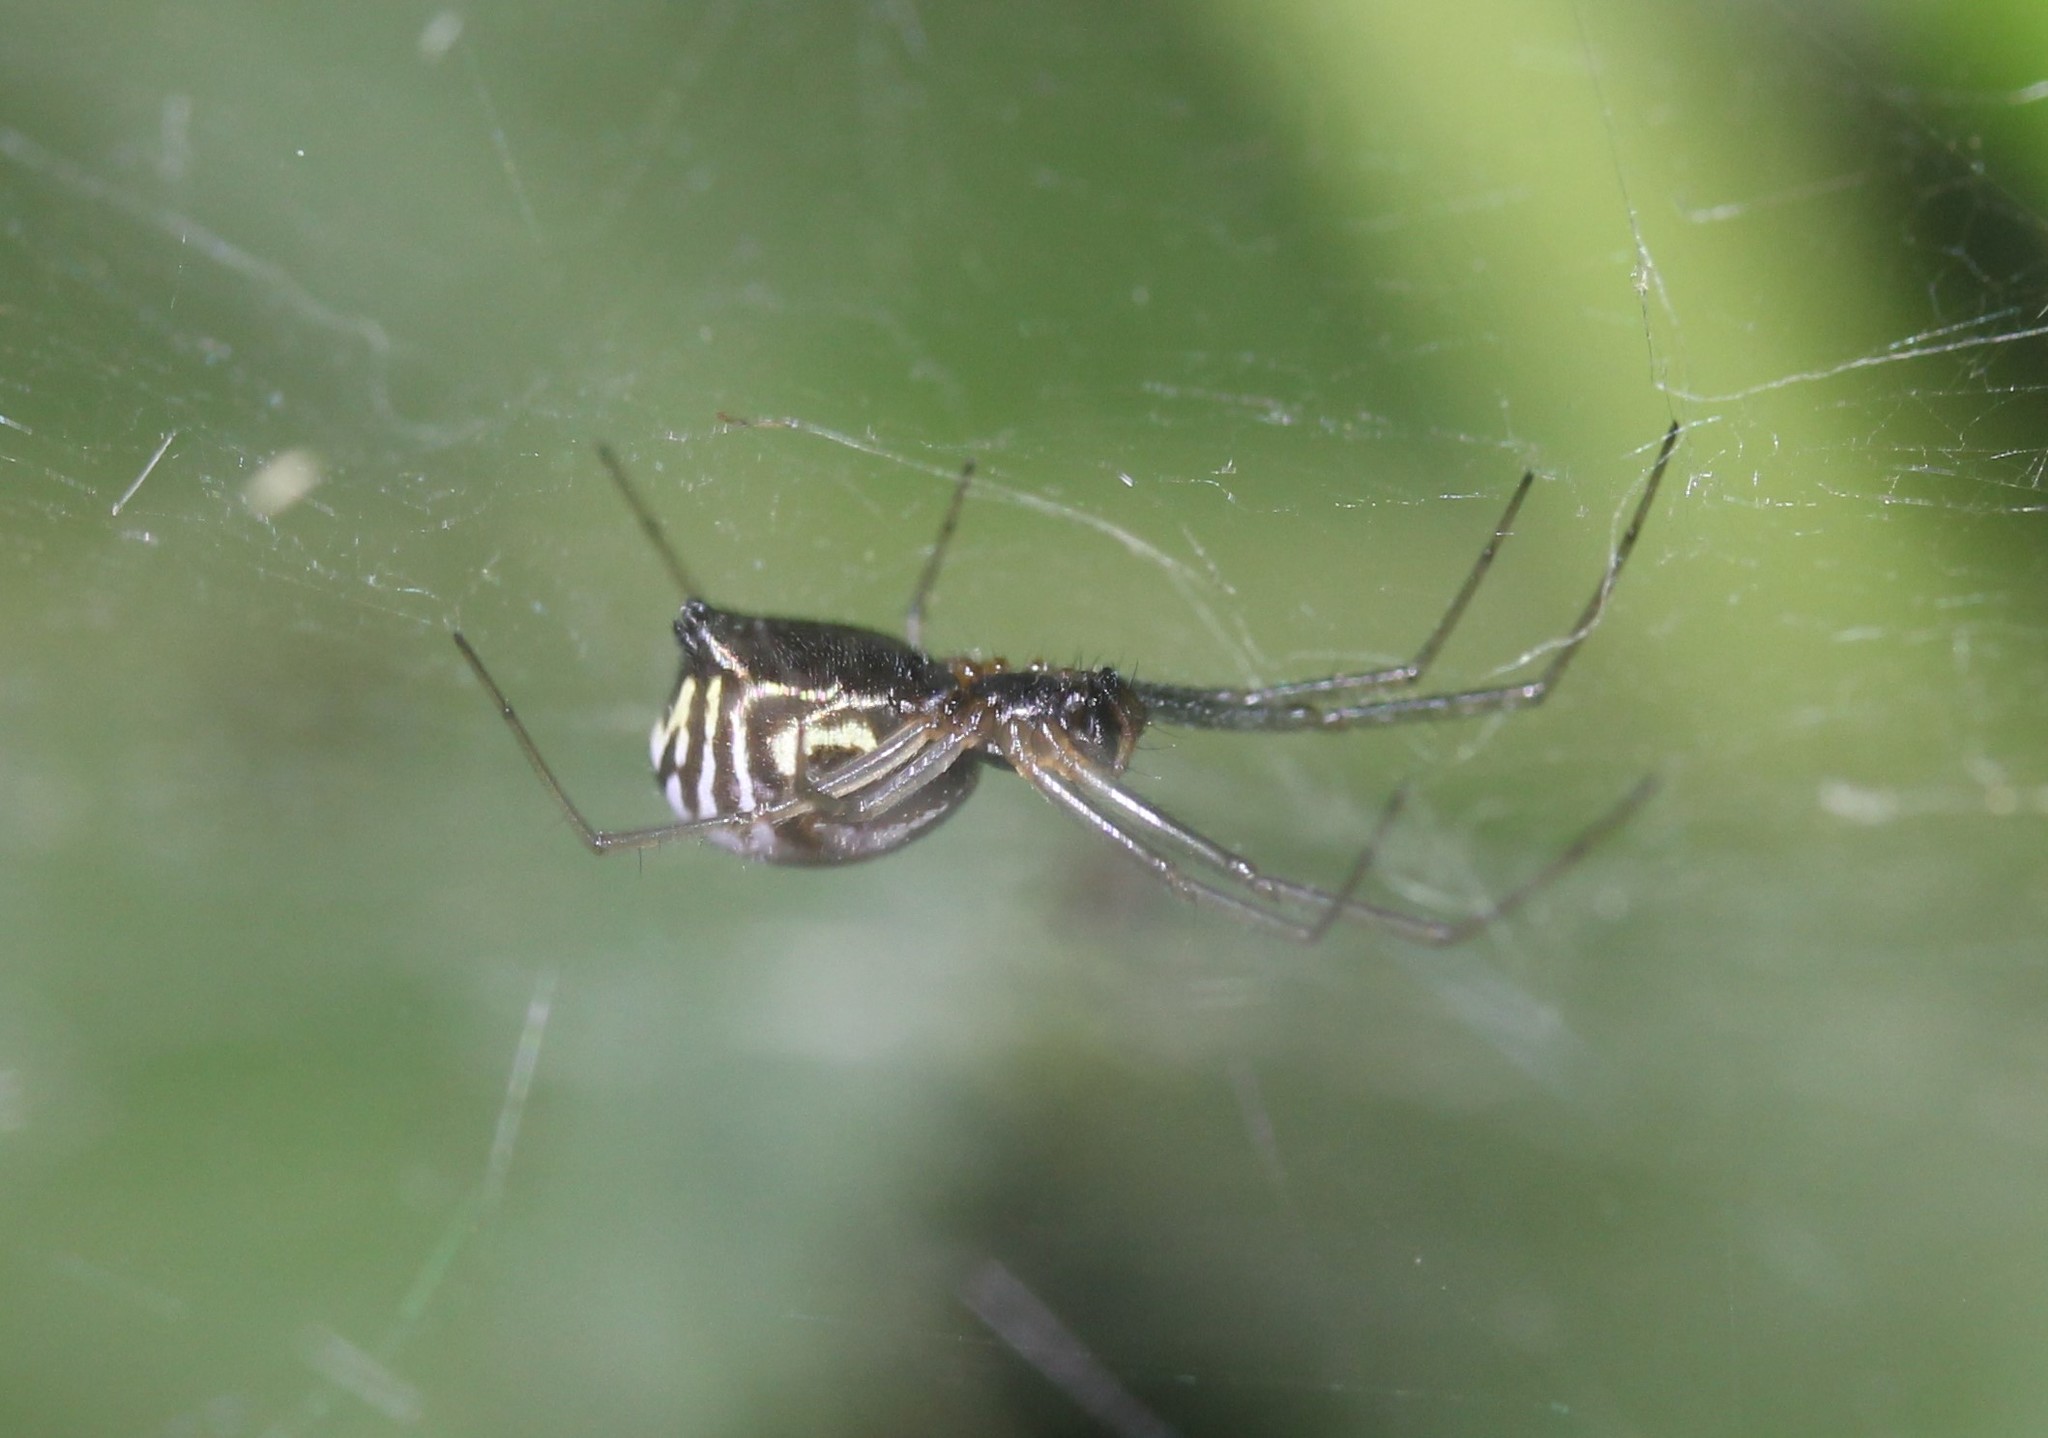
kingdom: Animalia
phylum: Arthropoda
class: Arachnida
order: Araneae
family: Linyphiidae
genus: Frontinella
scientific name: Frontinella pyramitela
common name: Bowl-and-doily spider
